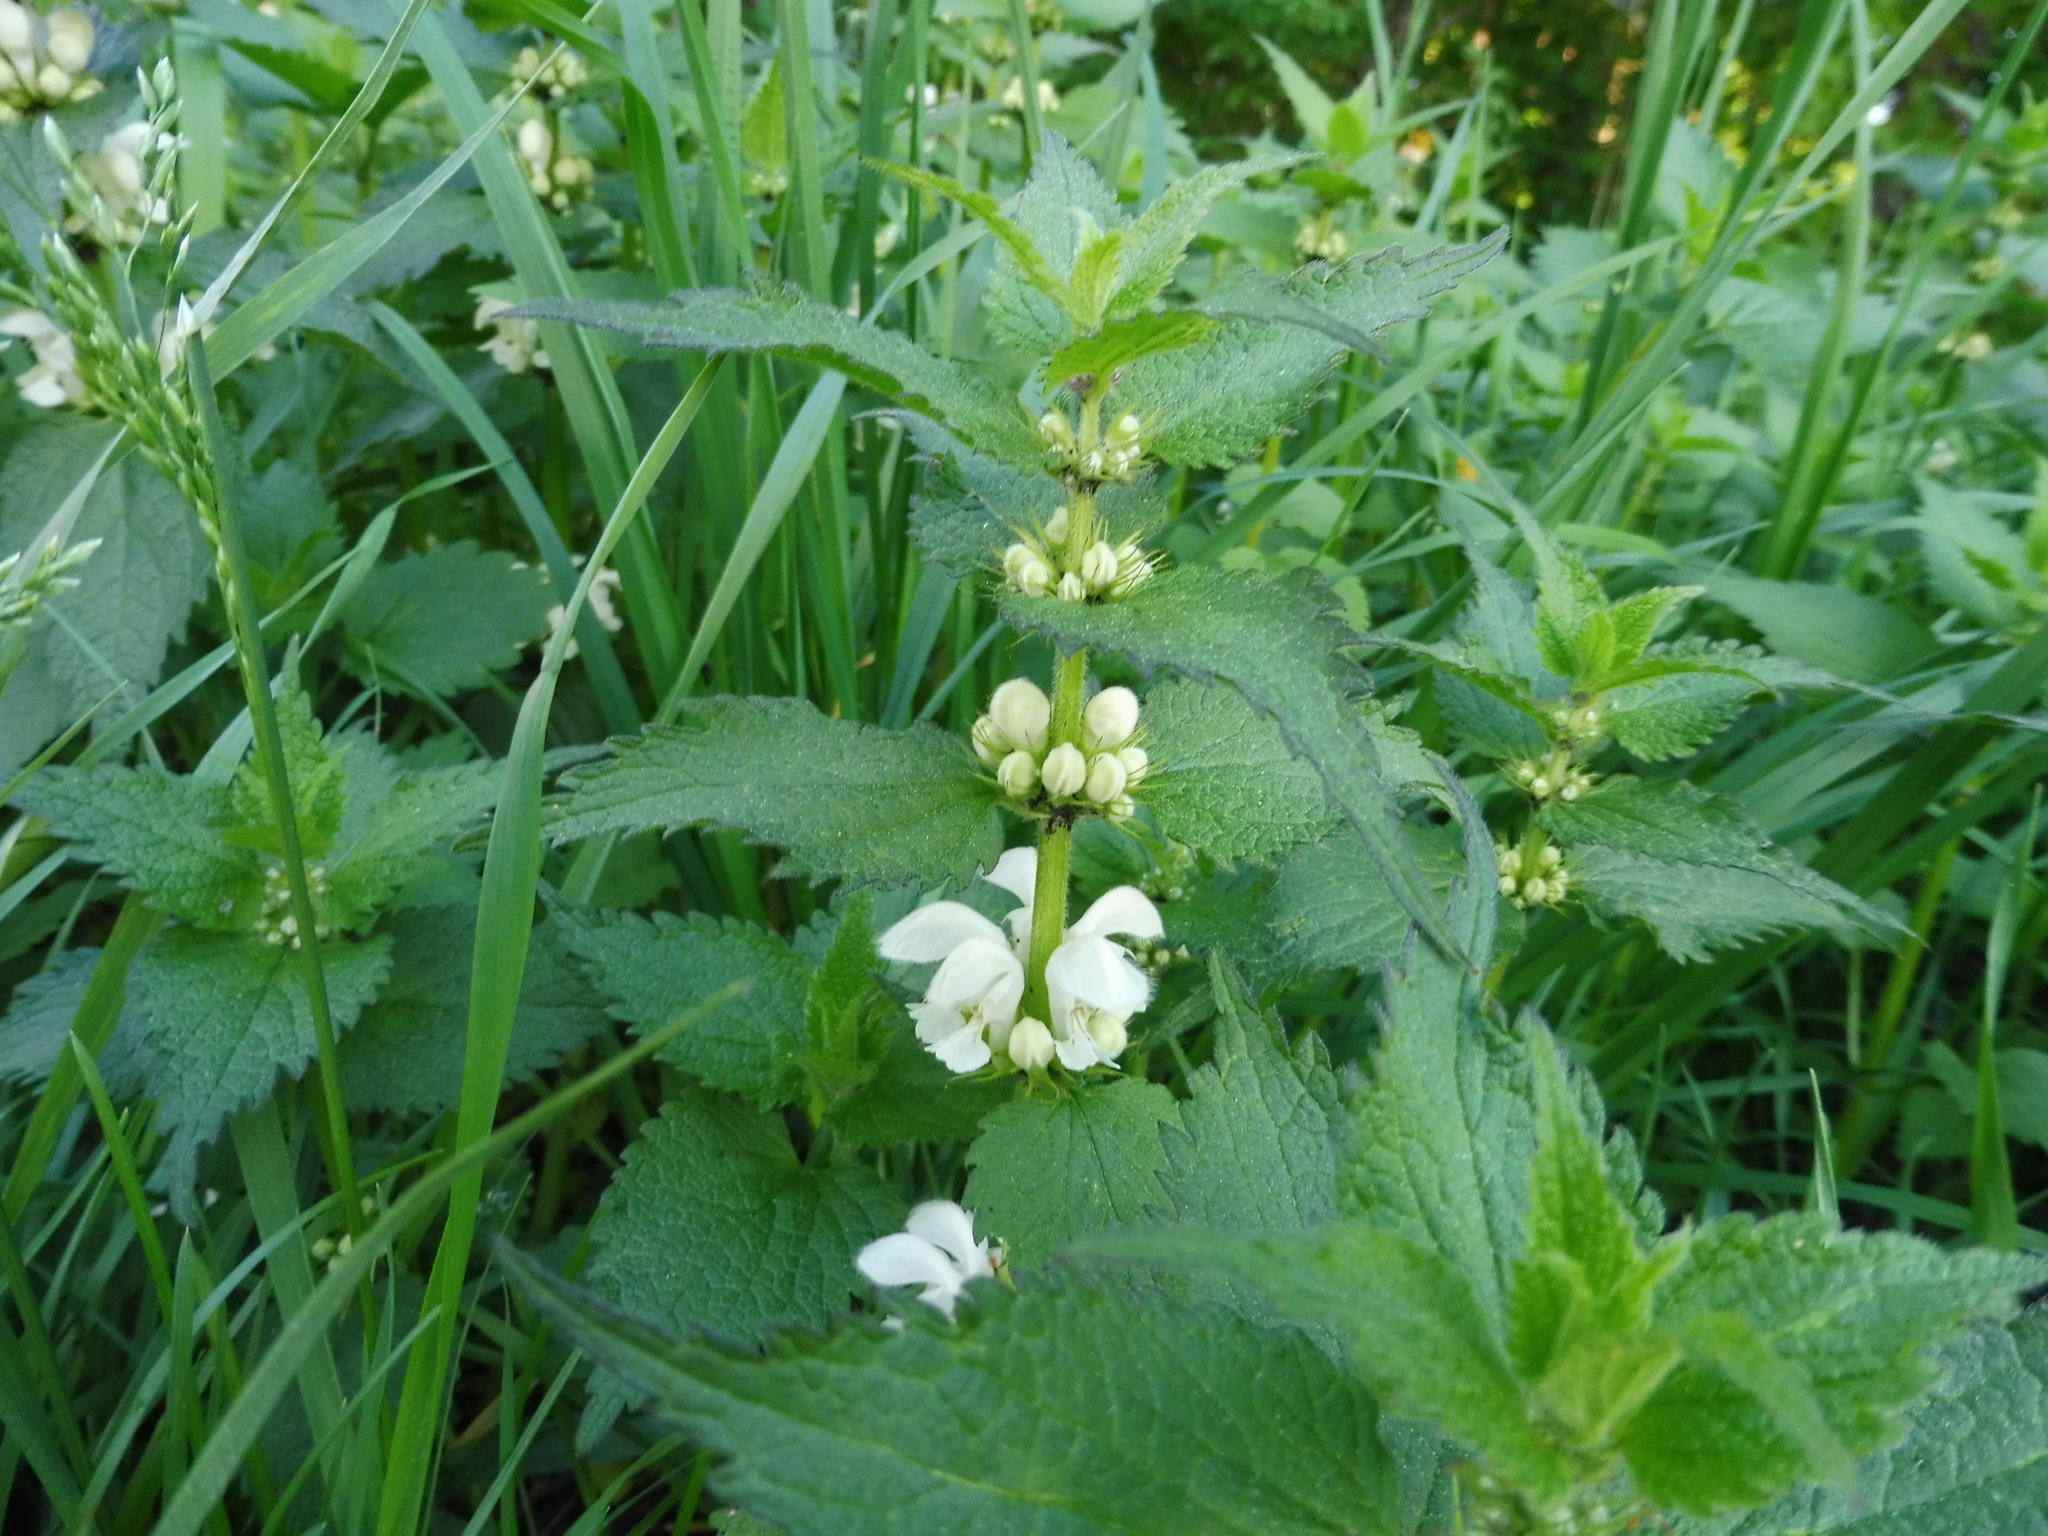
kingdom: Plantae
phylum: Tracheophyta
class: Magnoliopsida
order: Lamiales
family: Lamiaceae
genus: Lamium
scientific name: Lamium album
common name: White dead-nettle
